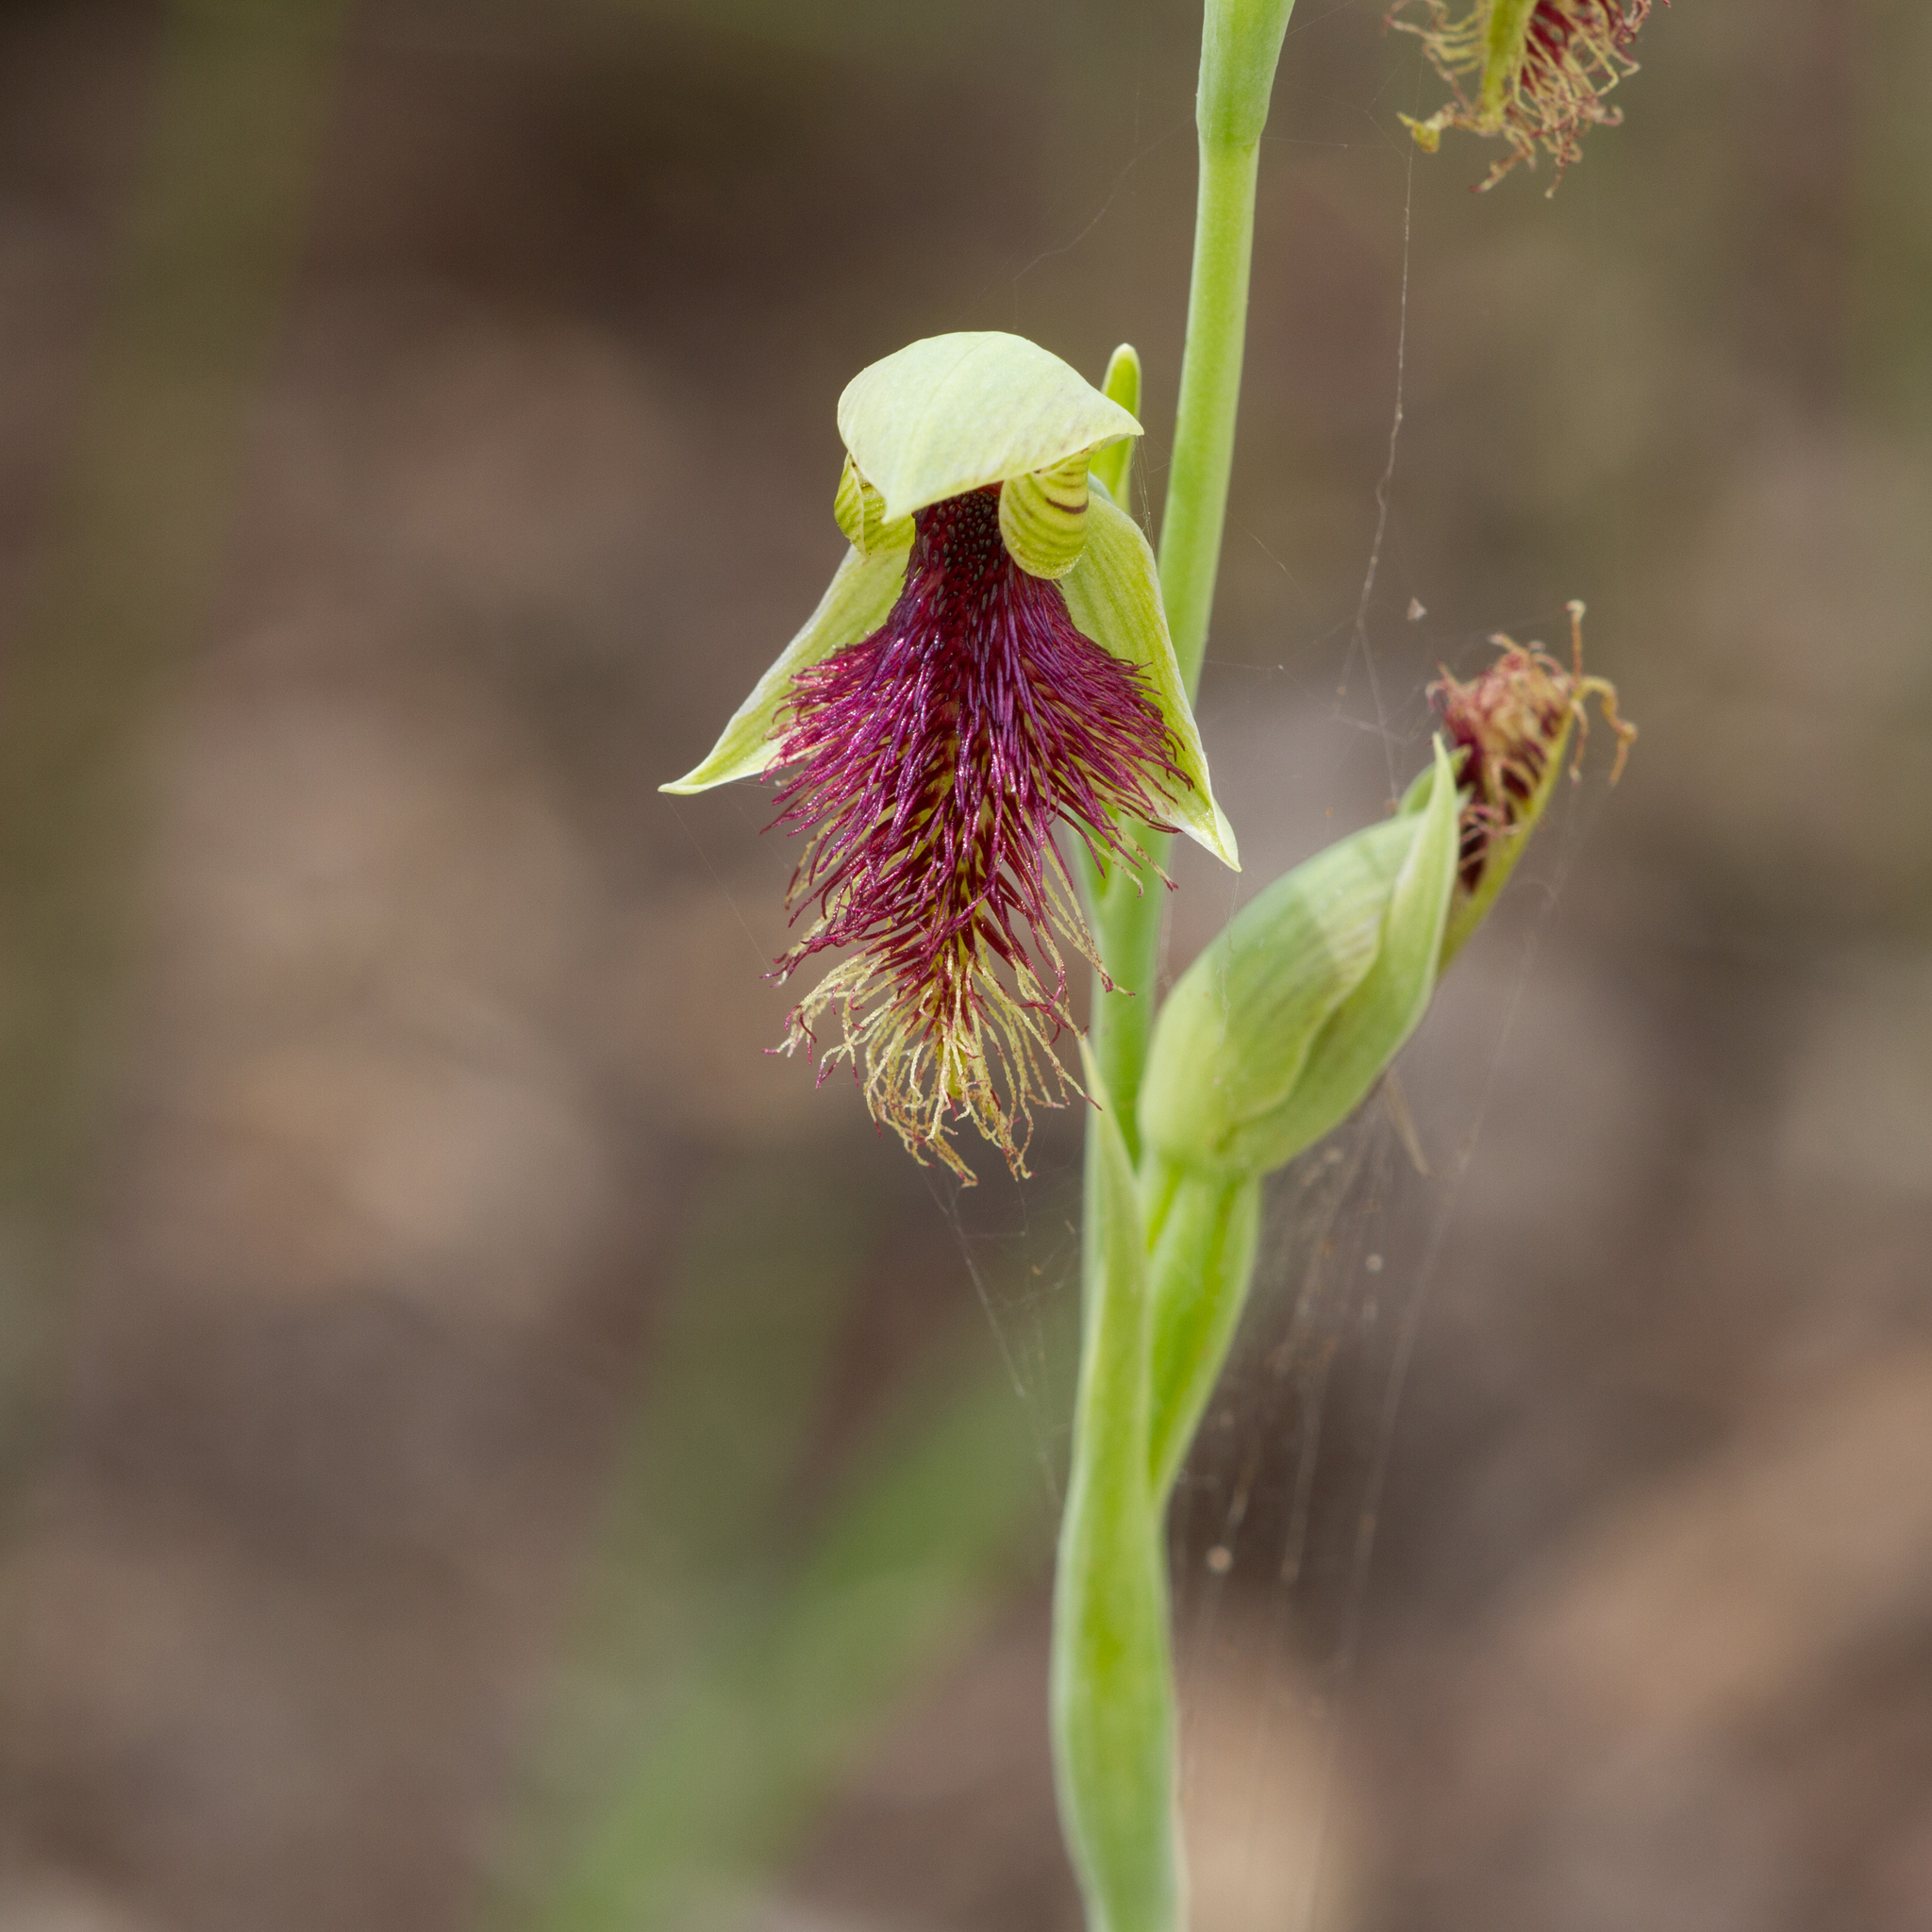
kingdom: Plantae
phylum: Tracheophyta
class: Liliopsida
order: Asparagales
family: Orchidaceae
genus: Calochilus
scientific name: Calochilus robertsonii
